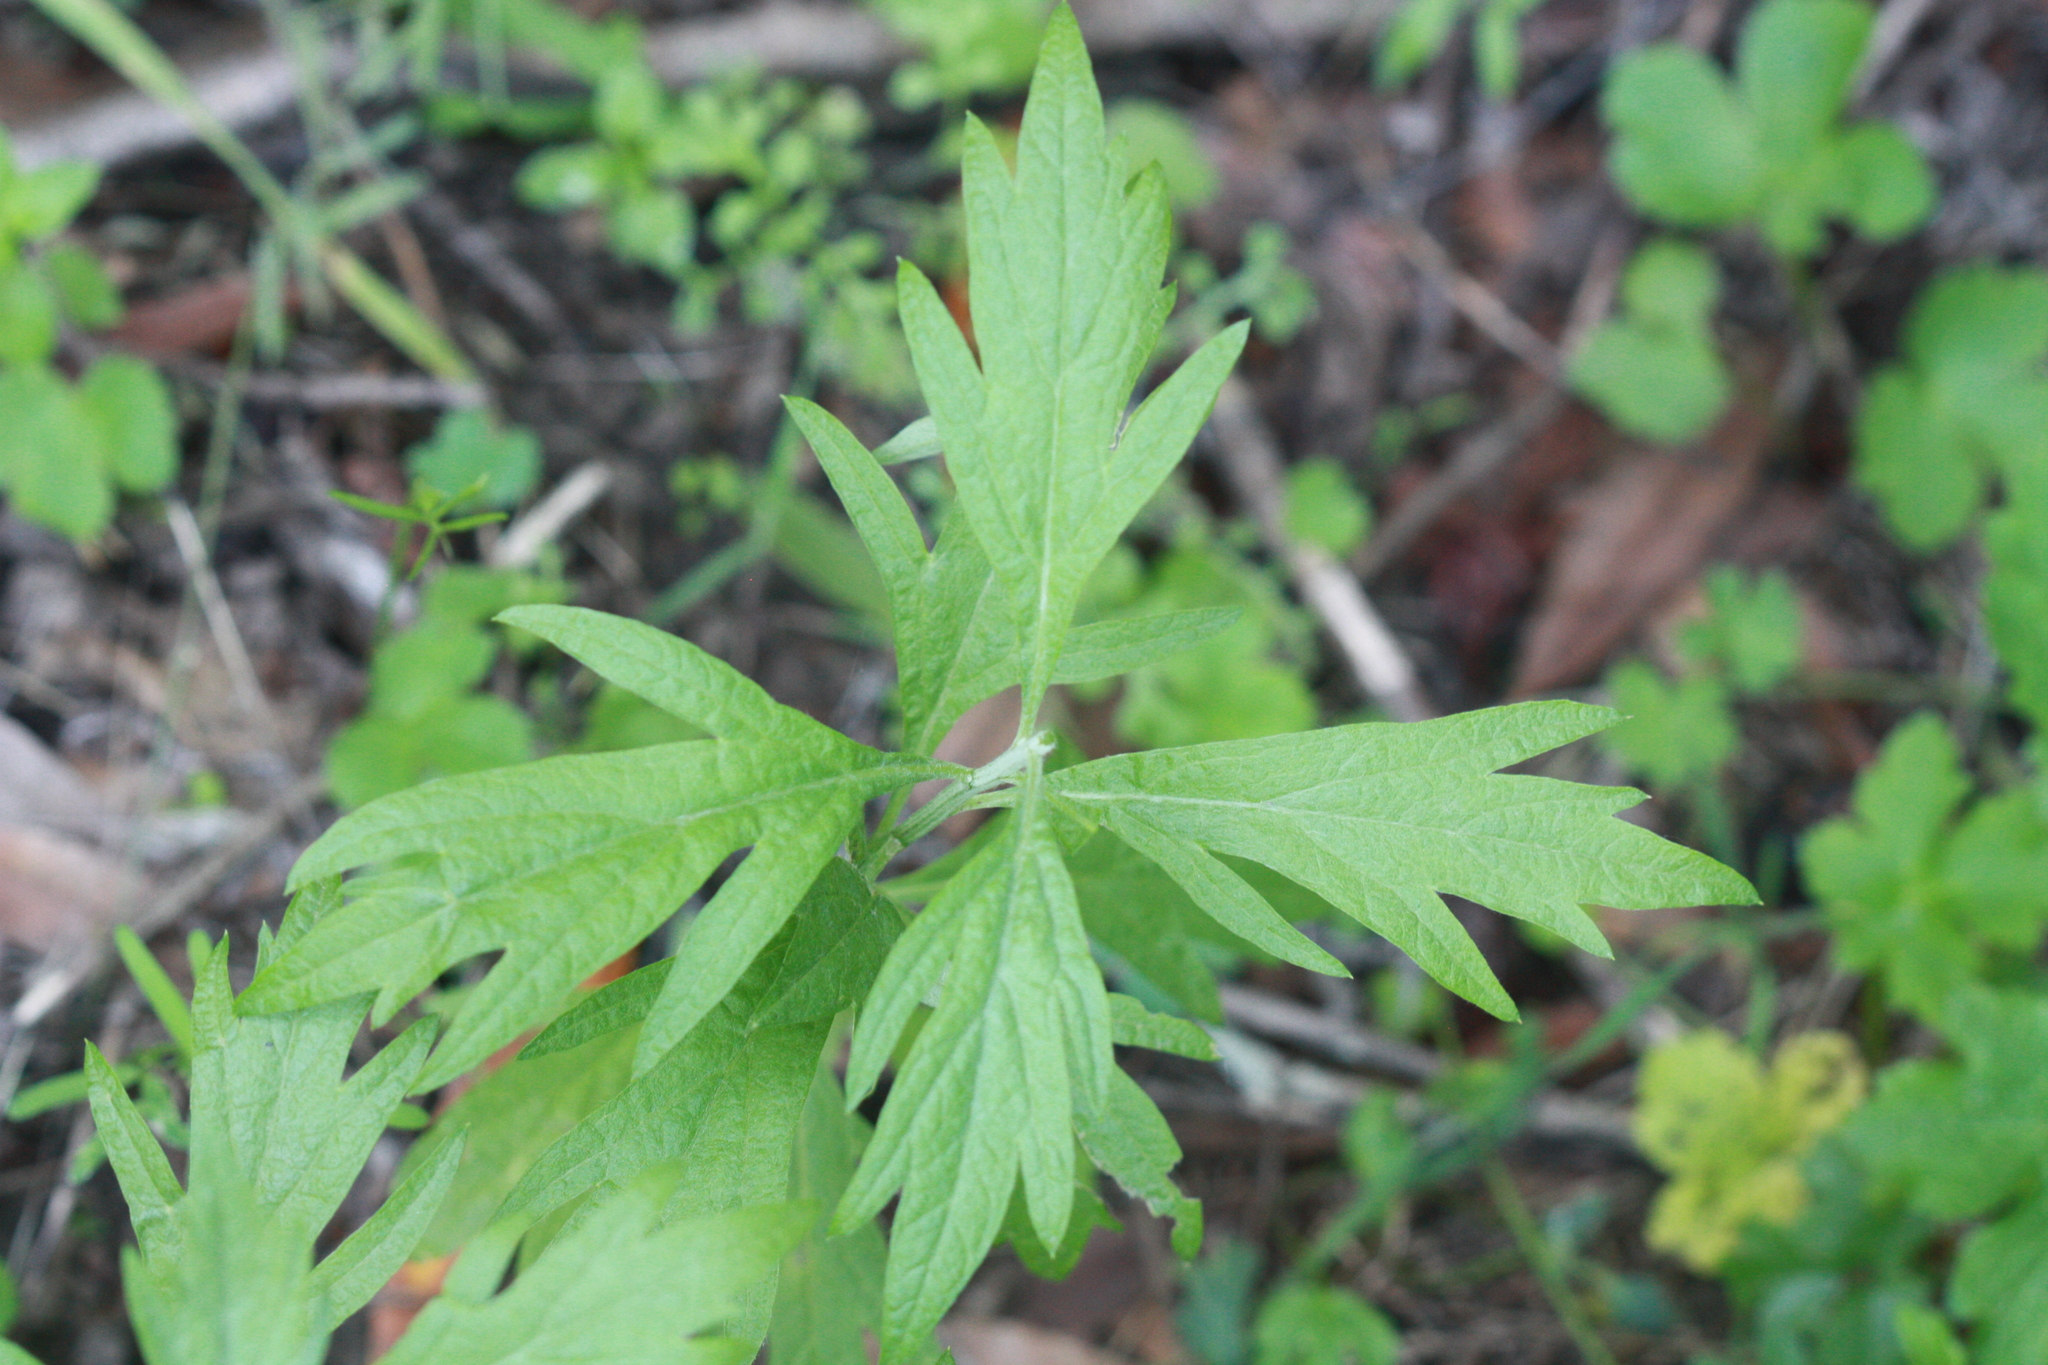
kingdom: Plantae
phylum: Tracheophyta
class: Magnoliopsida
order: Asterales
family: Asteraceae
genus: Artemisia
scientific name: Artemisia douglasiana
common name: Northwest mugwort
